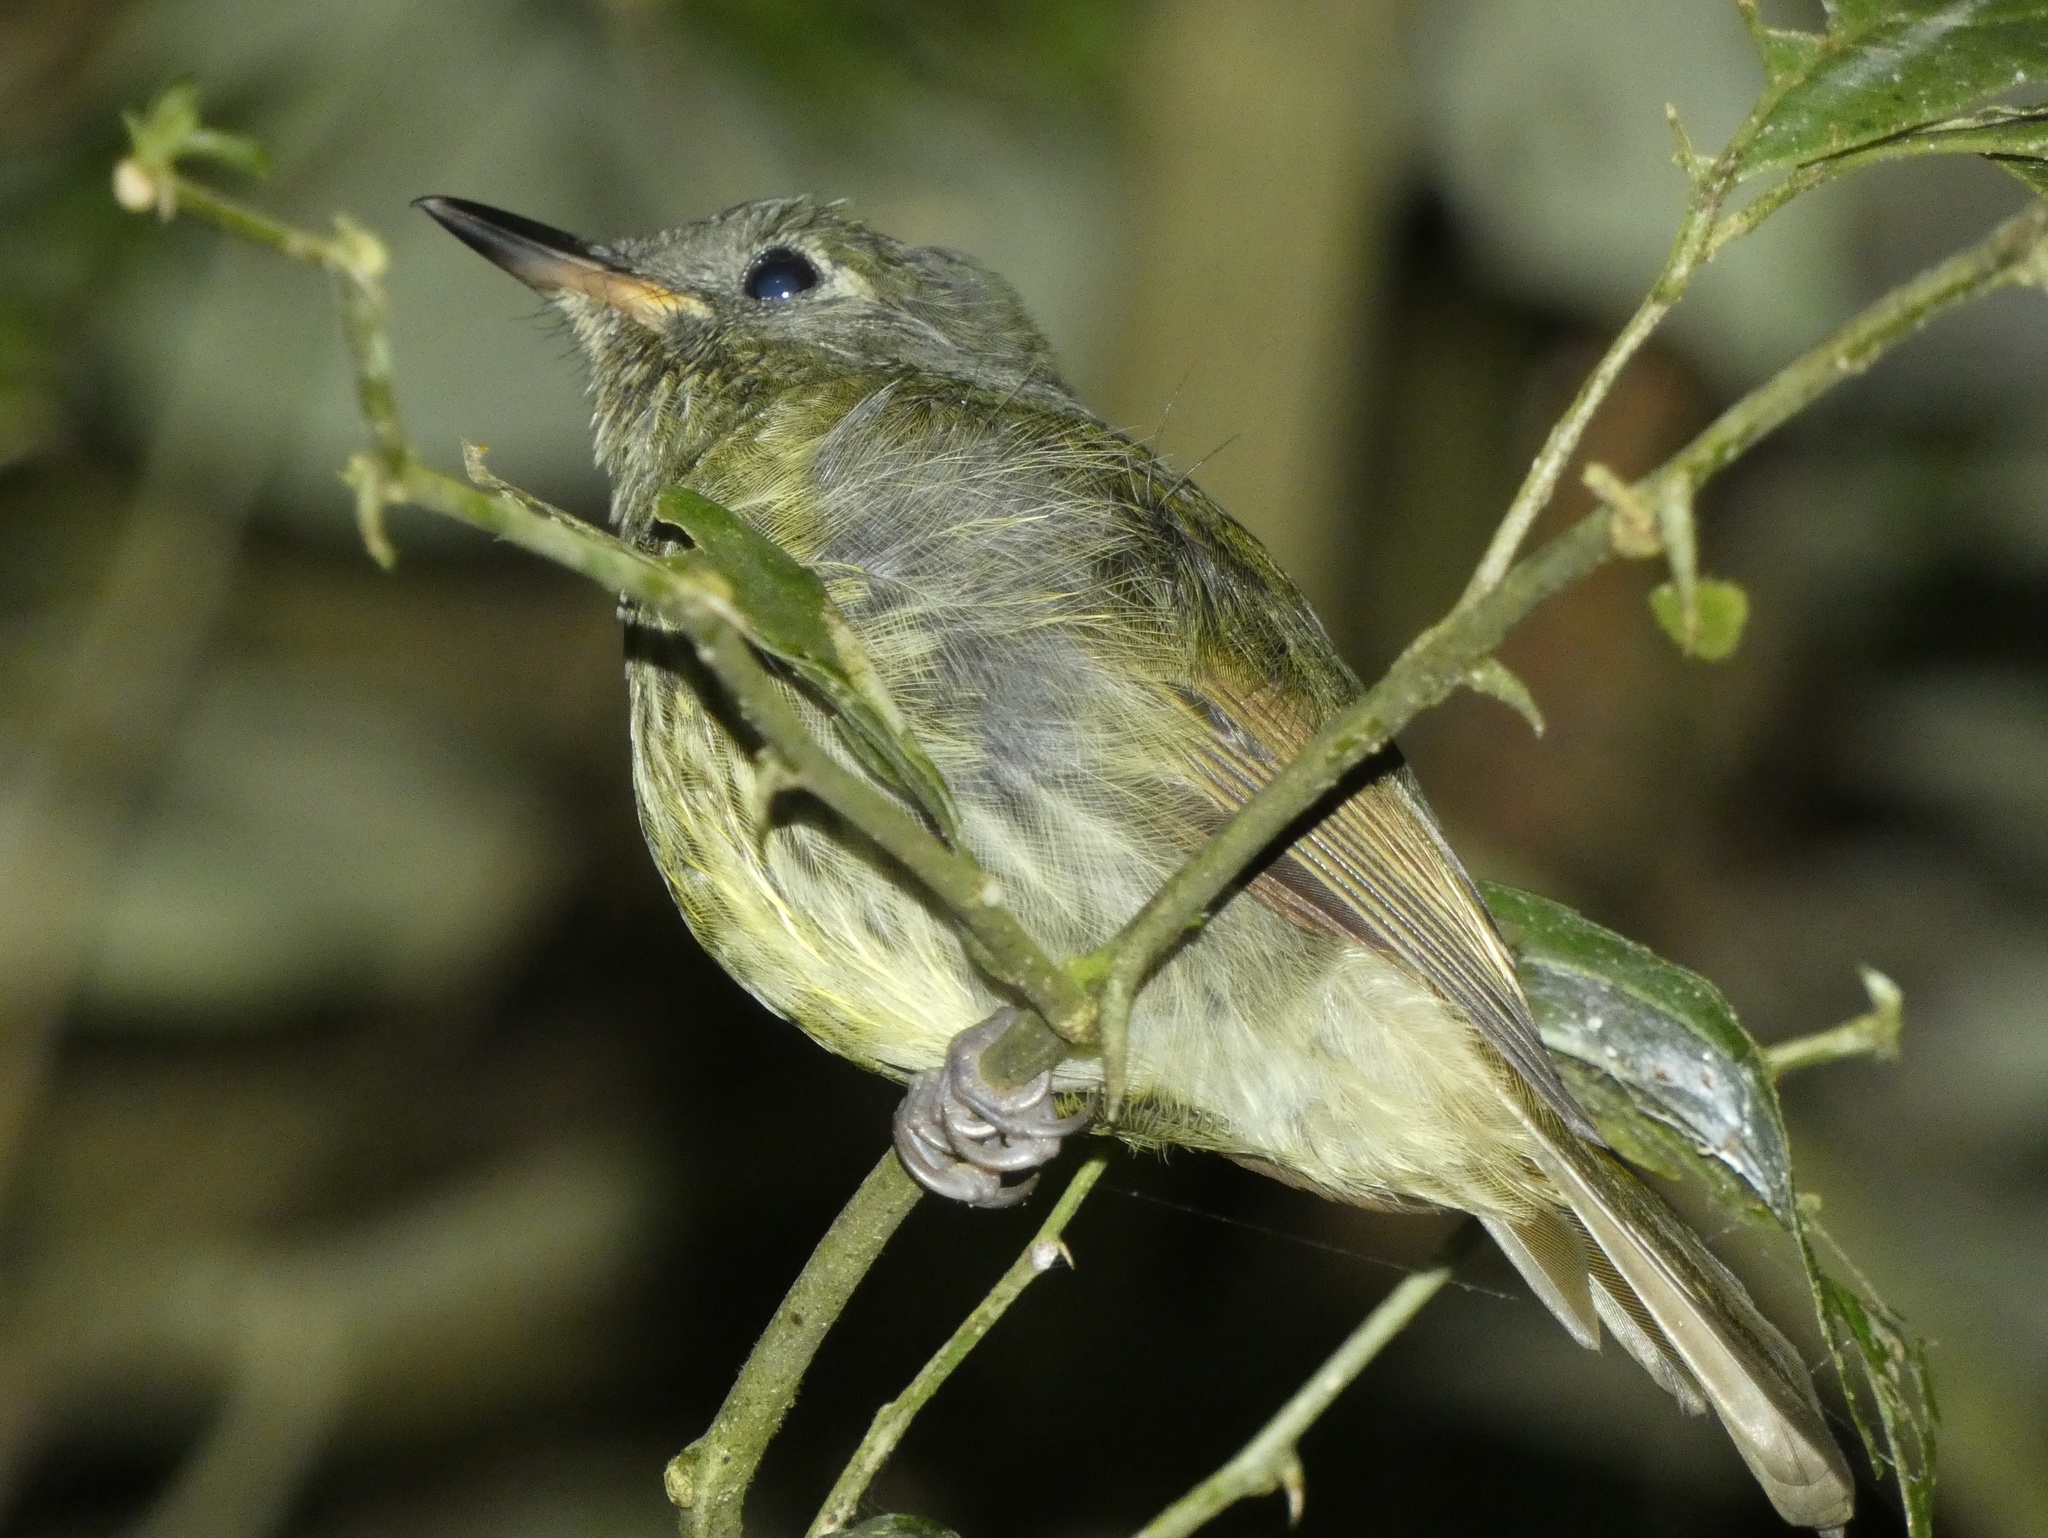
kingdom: Animalia
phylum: Chordata
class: Aves
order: Passeriformes
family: Tyrannidae
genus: Mionectes
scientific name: Mionectes galbinus
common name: Olive-striped flycatcher
